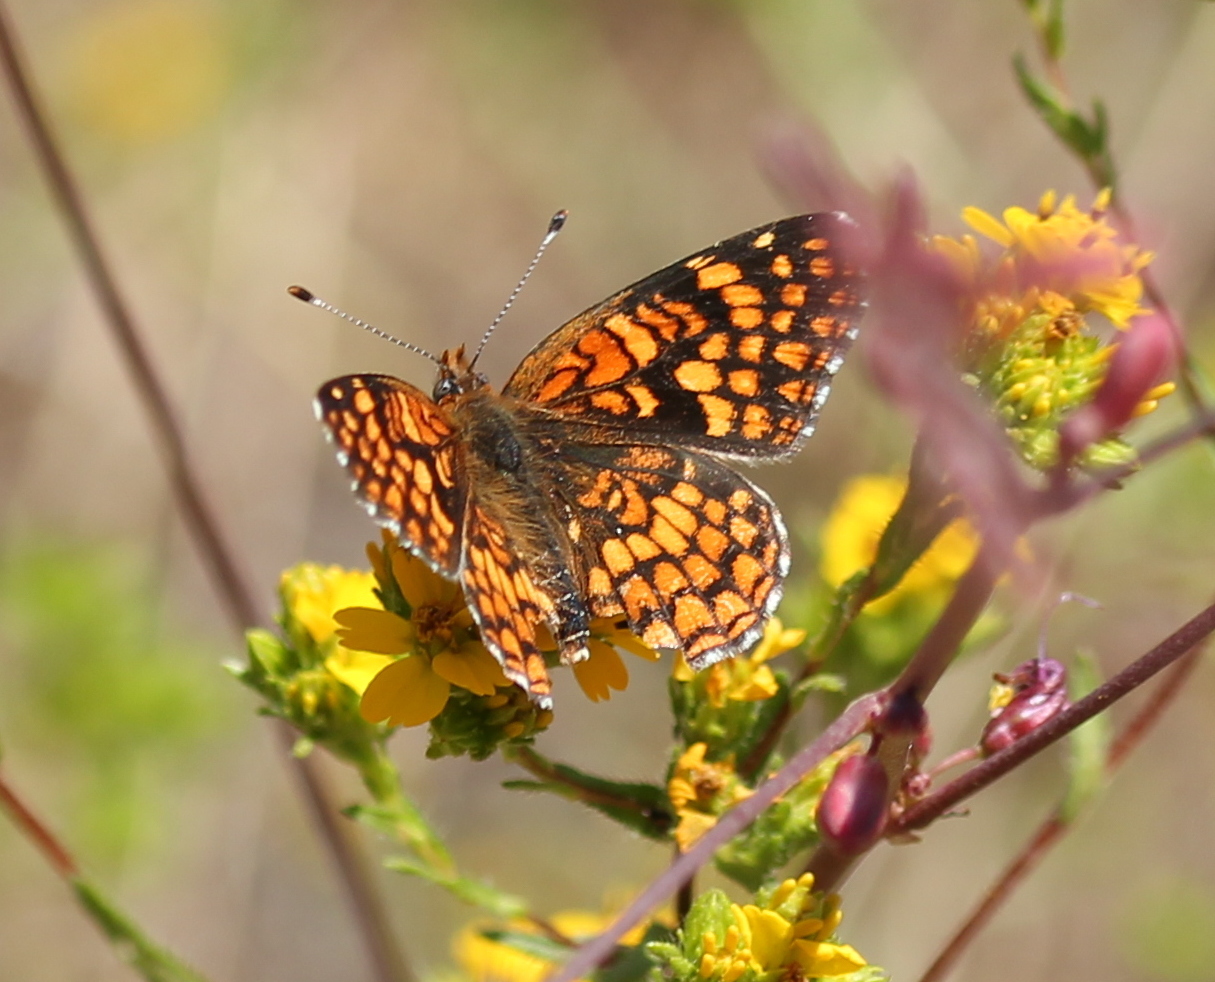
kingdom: Animalia
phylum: Arthropoda
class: Insecta
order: Lepidoptera
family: Nymphalidae
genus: Chlosyne
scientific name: Chlosyne gabbii
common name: Gabb's checkerspot
